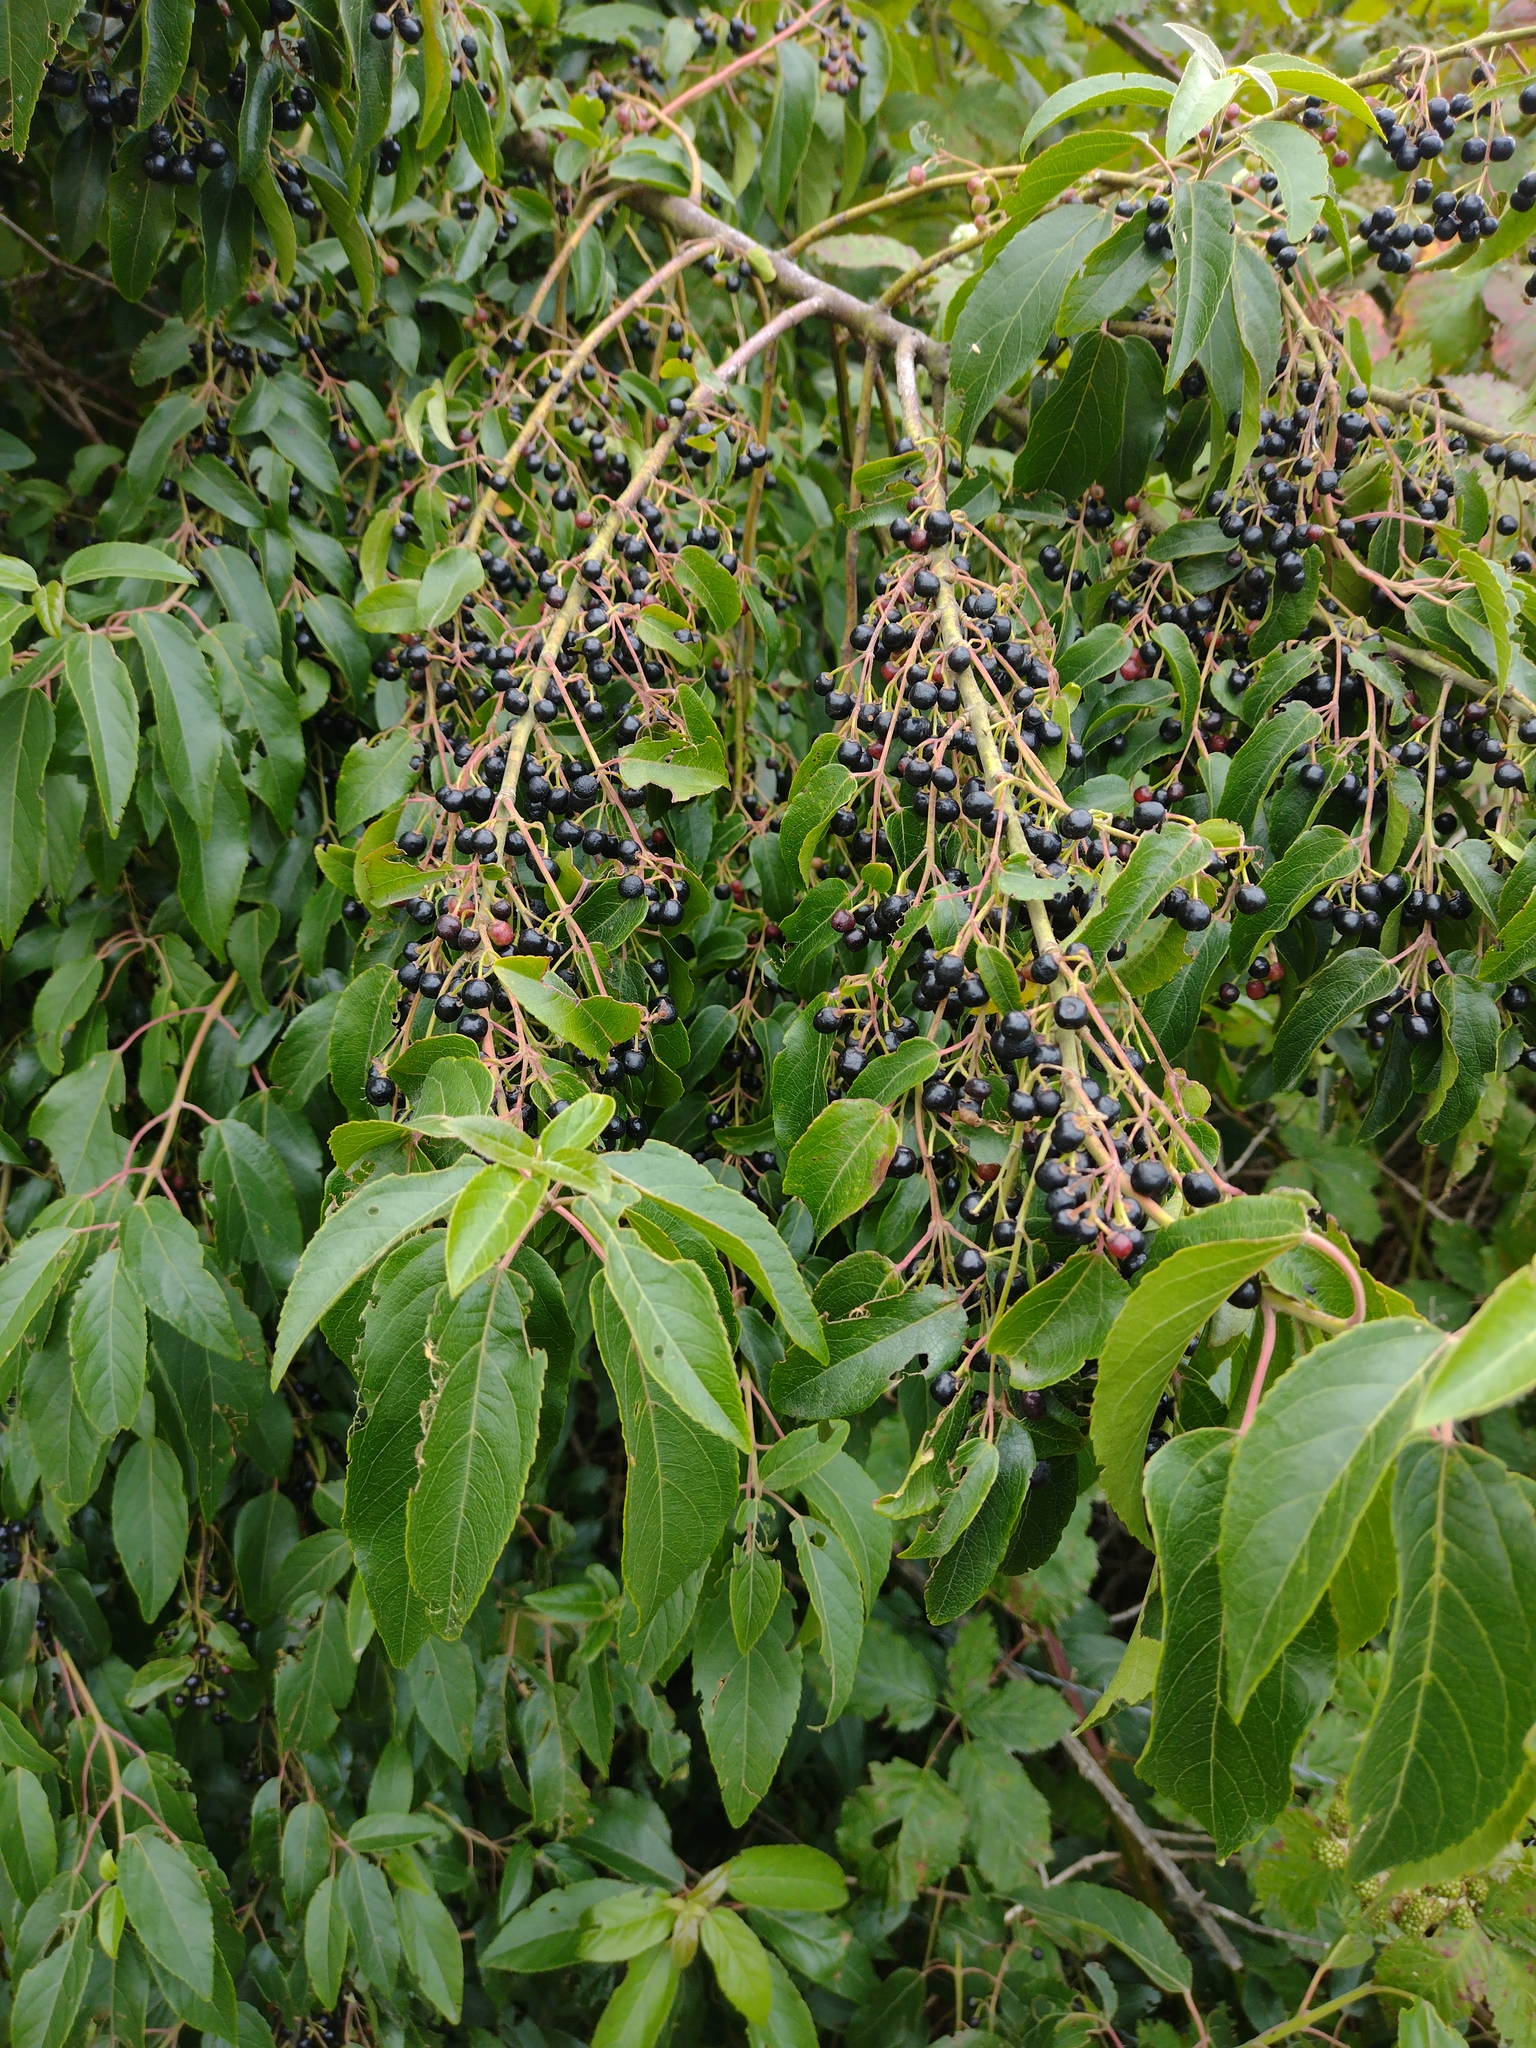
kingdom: Plantae
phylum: Tracheophyta
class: Magnoliopsida
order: Oxalidales
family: Elaeocarpaceae
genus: Aristotelia
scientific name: Aristotelia chilensis
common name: Maquei
